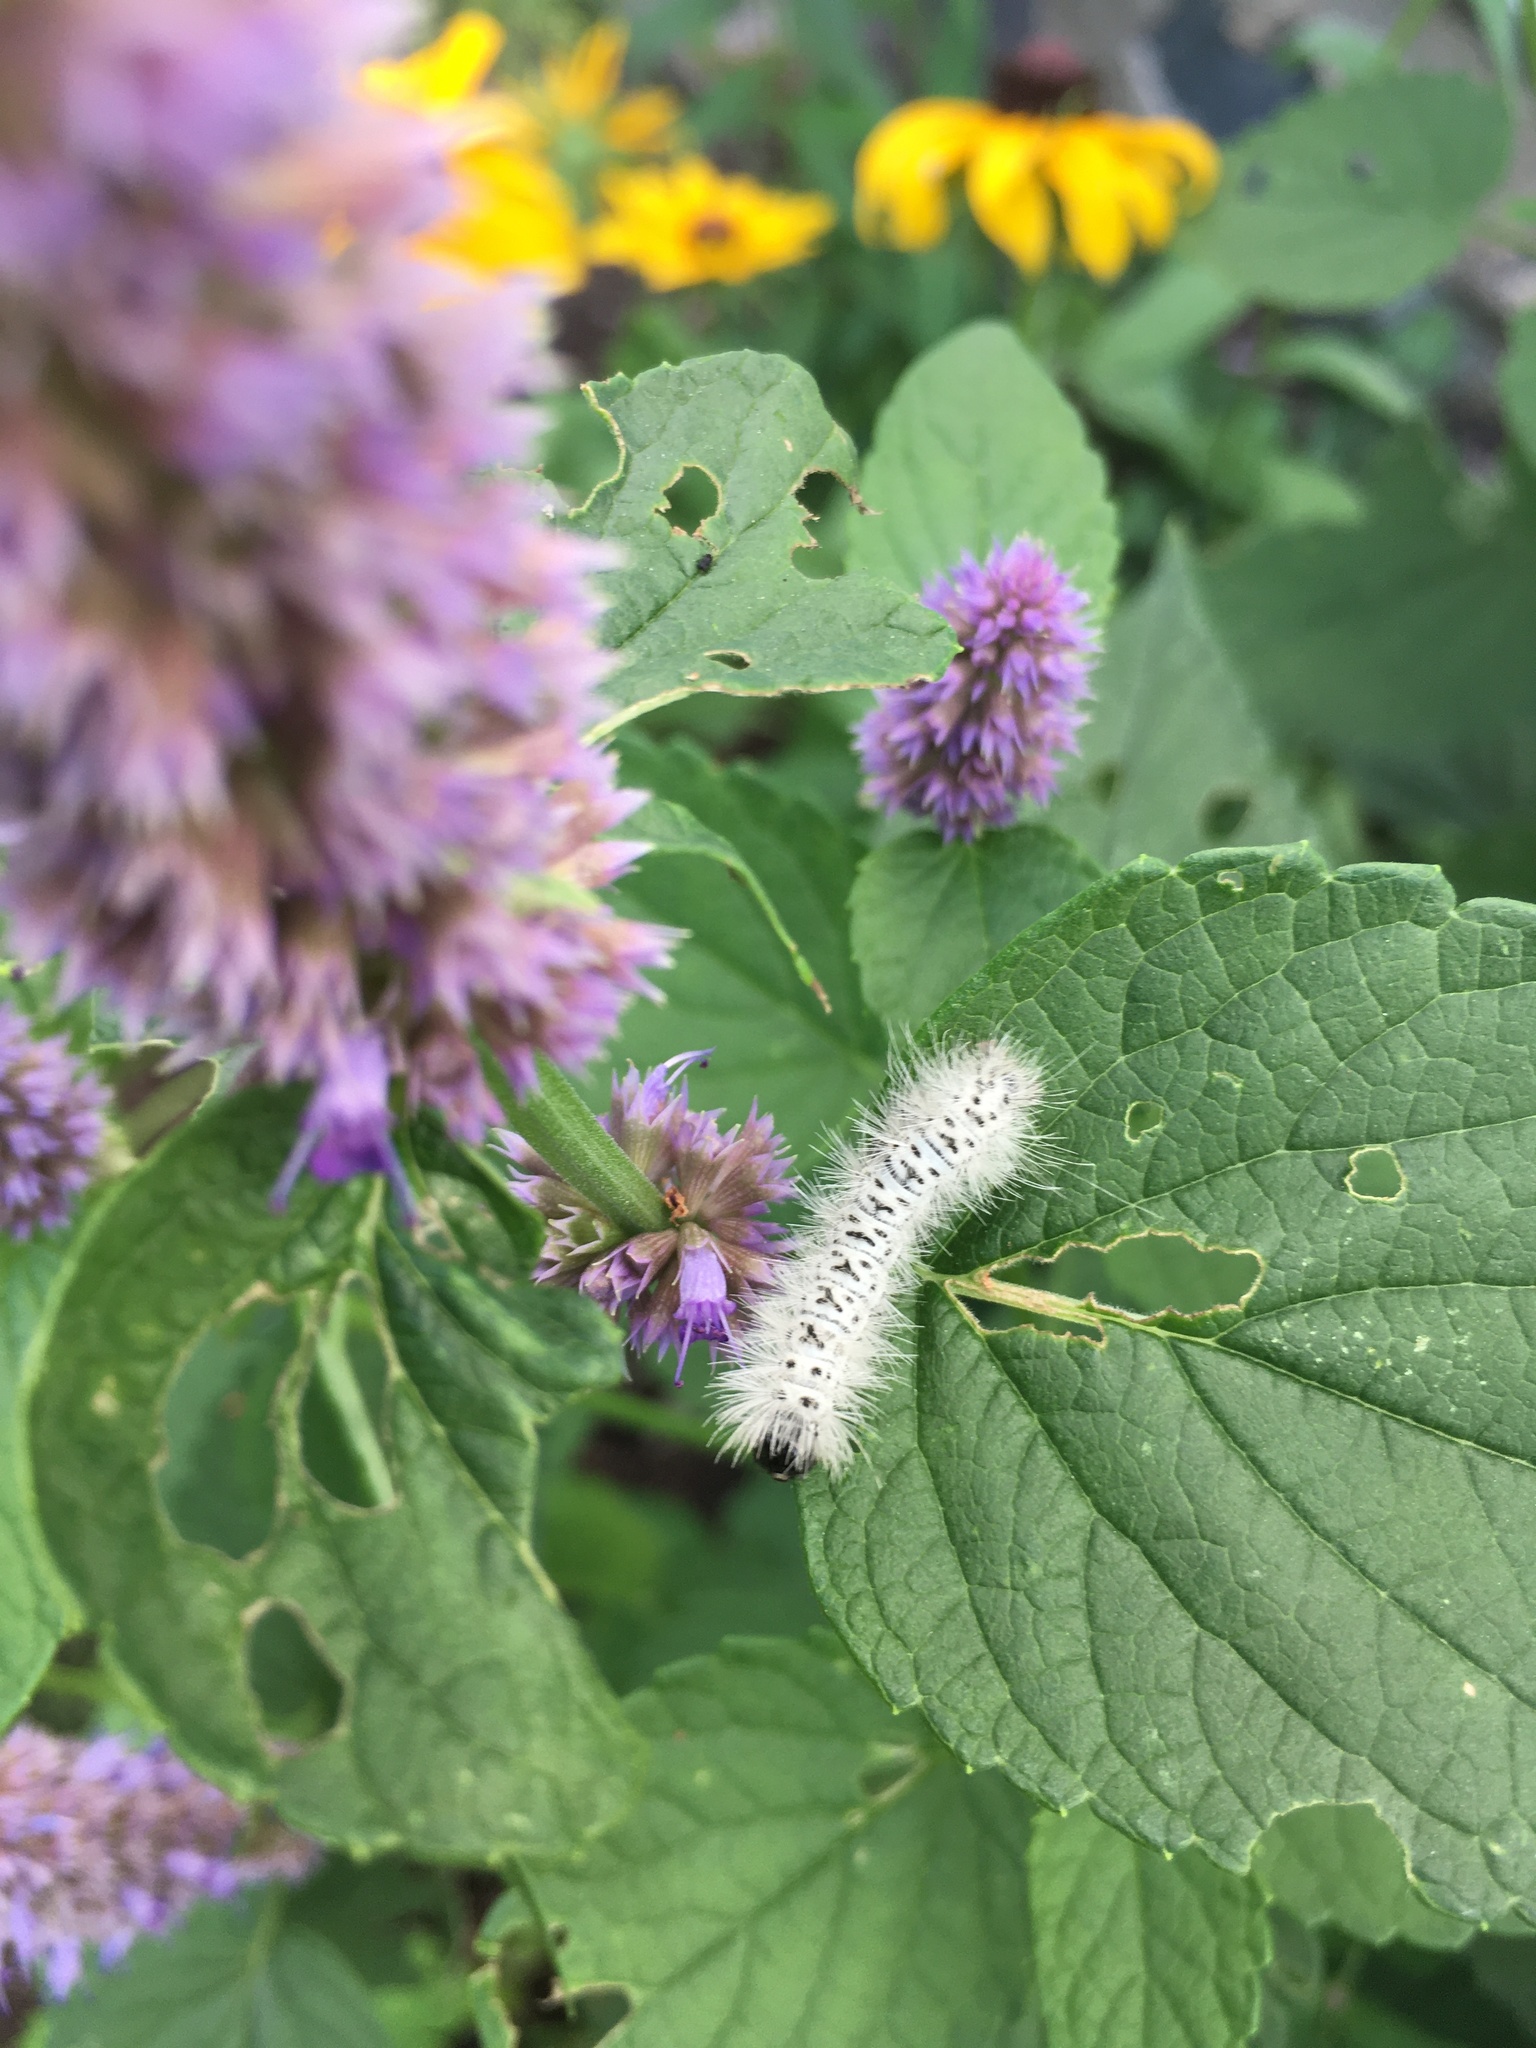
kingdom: Animalia
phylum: Arthropoda
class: Insecta
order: Lepidoptera
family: Erebidae
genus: Lophocampa
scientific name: Lophocampa caryae
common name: Hickory tussock moth
